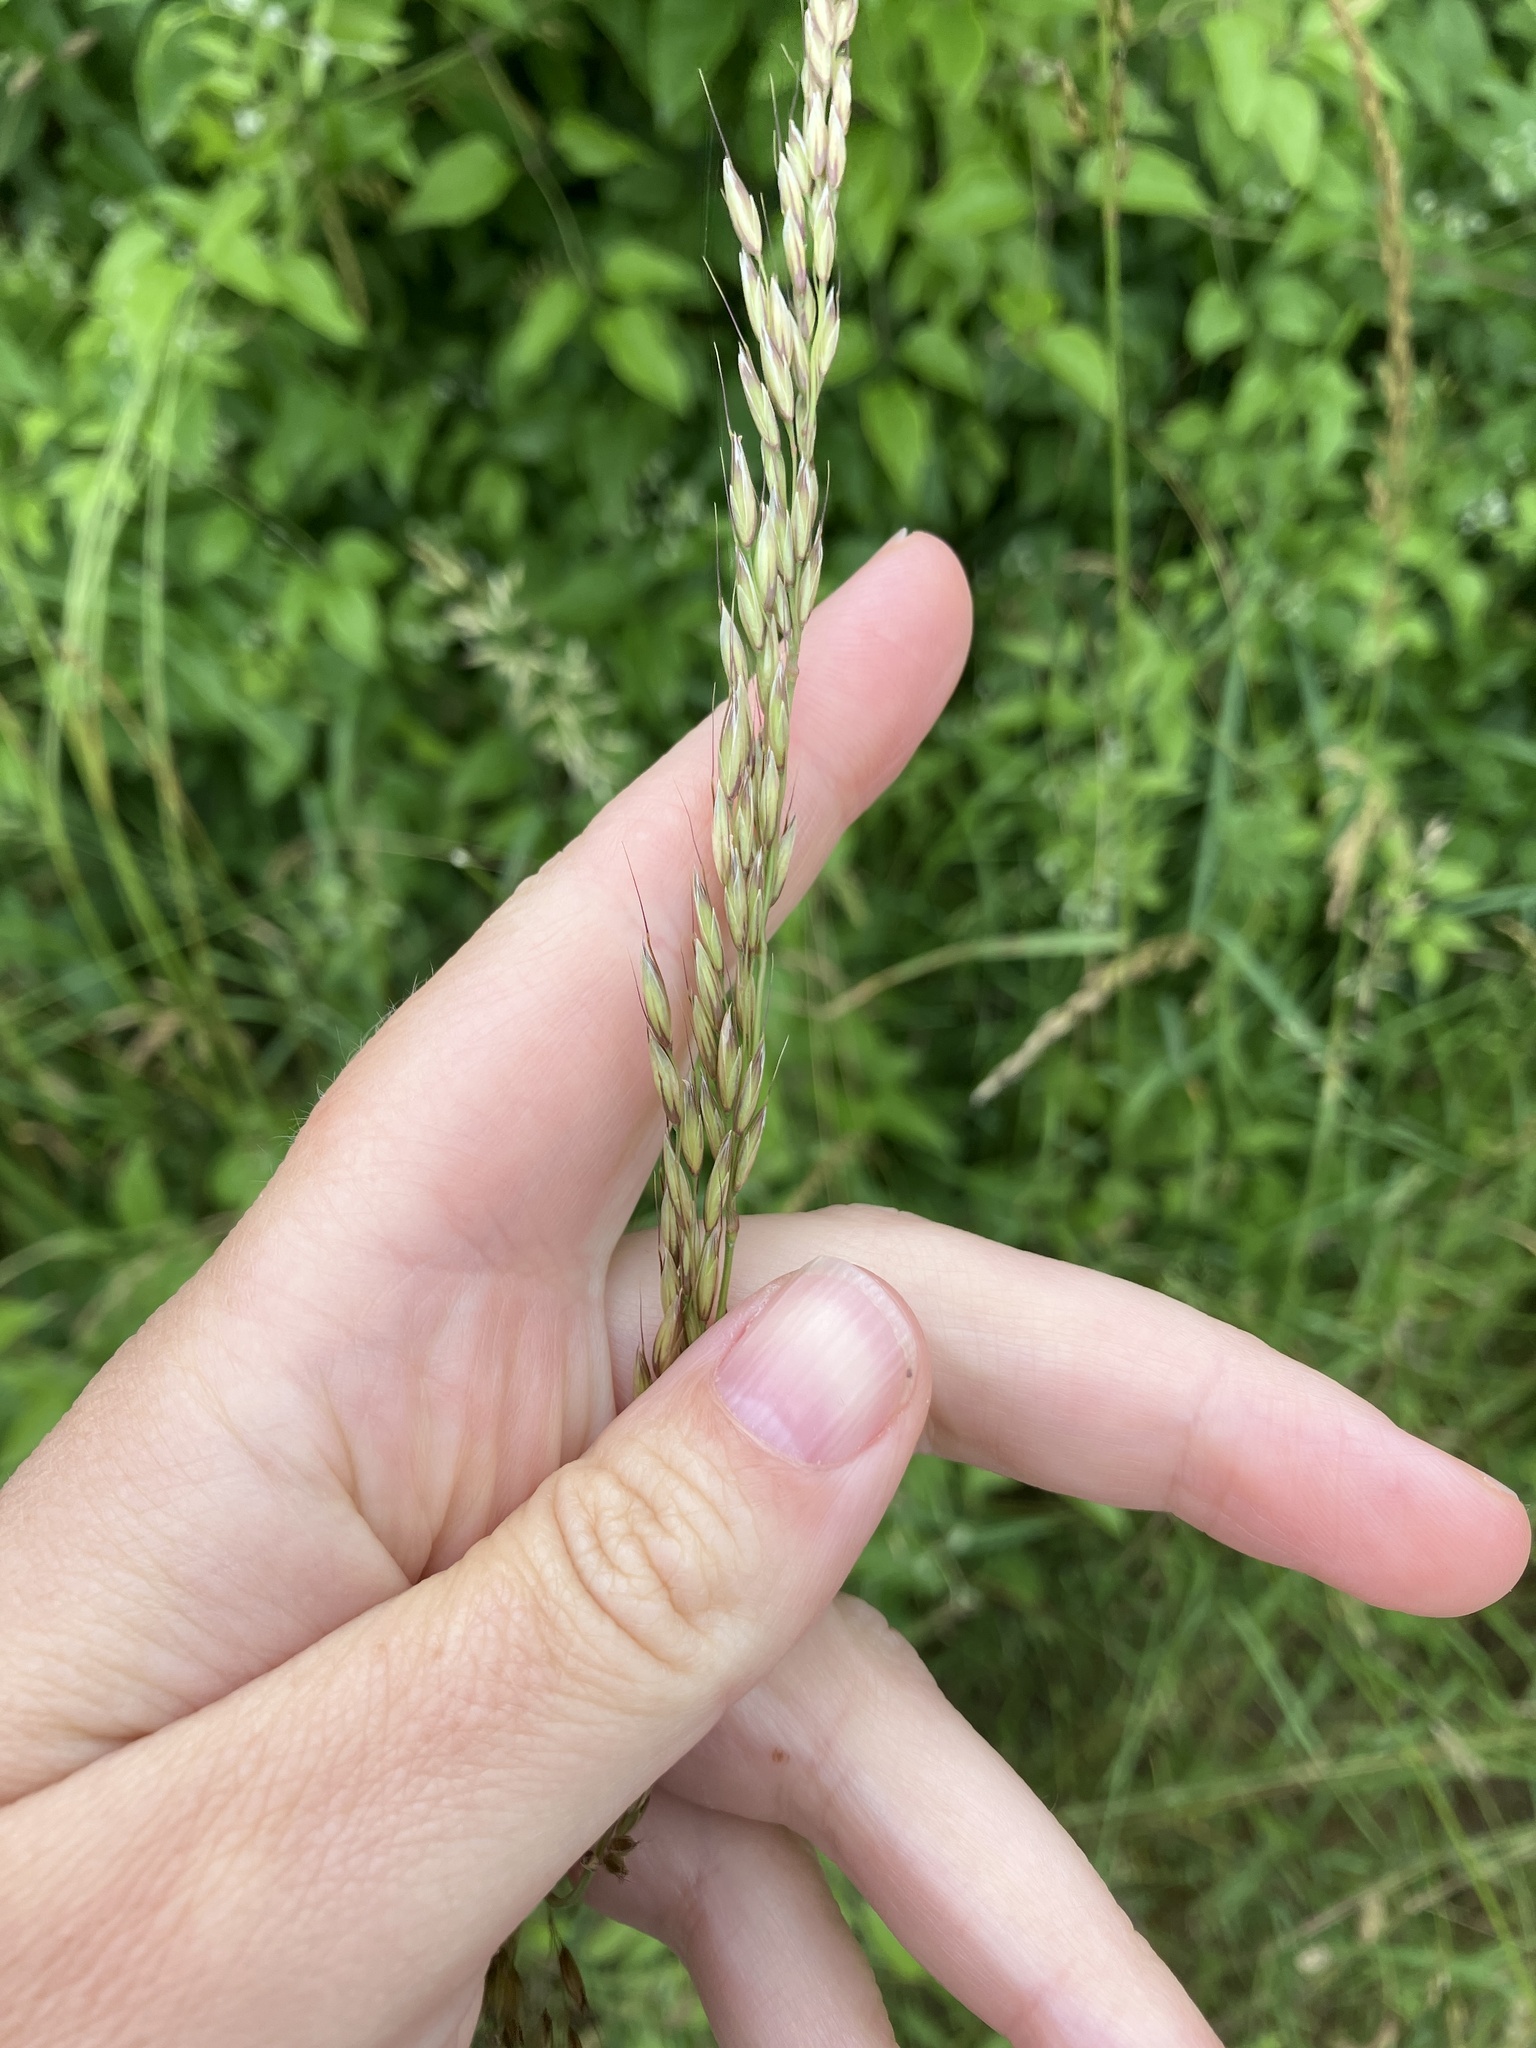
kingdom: Plantae
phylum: Tracheophyta
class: Liliopsida
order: Poales
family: Poaceae
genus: Arrhenatherum
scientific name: Arrhenatherum elatius
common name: Tall oatgrass
